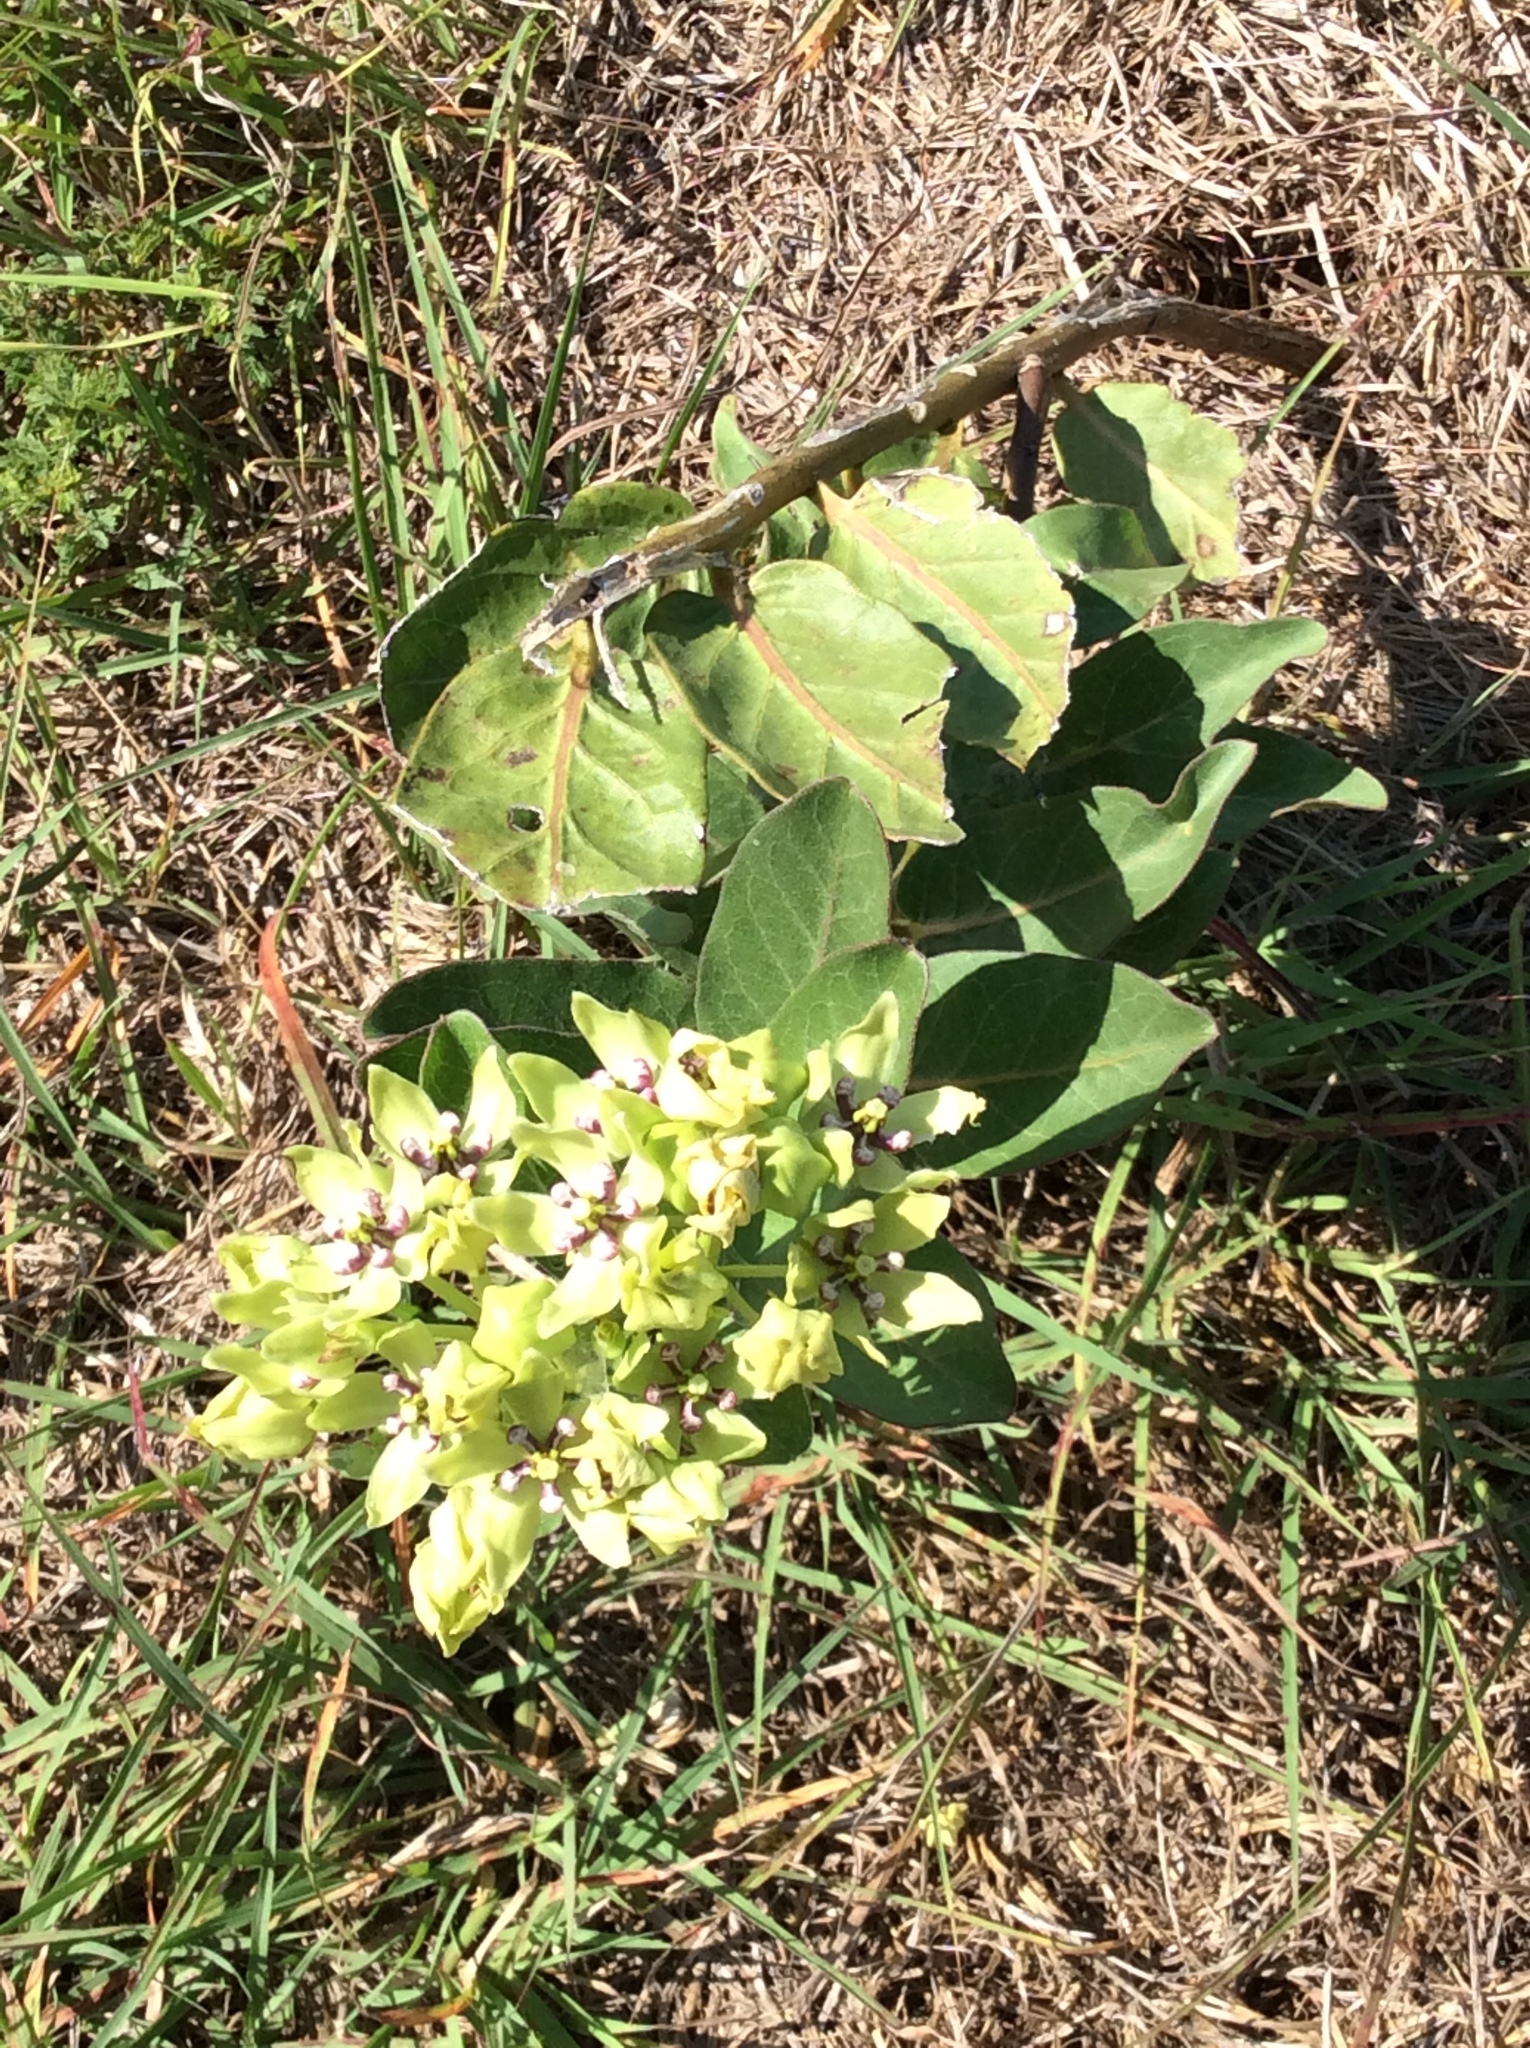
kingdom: Plantae
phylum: Tracheophyta
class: Magnoliopsida
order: Gentianales
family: Apocynaceae
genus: Asclepias
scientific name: Asclepias viridis
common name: Antelope-horns
